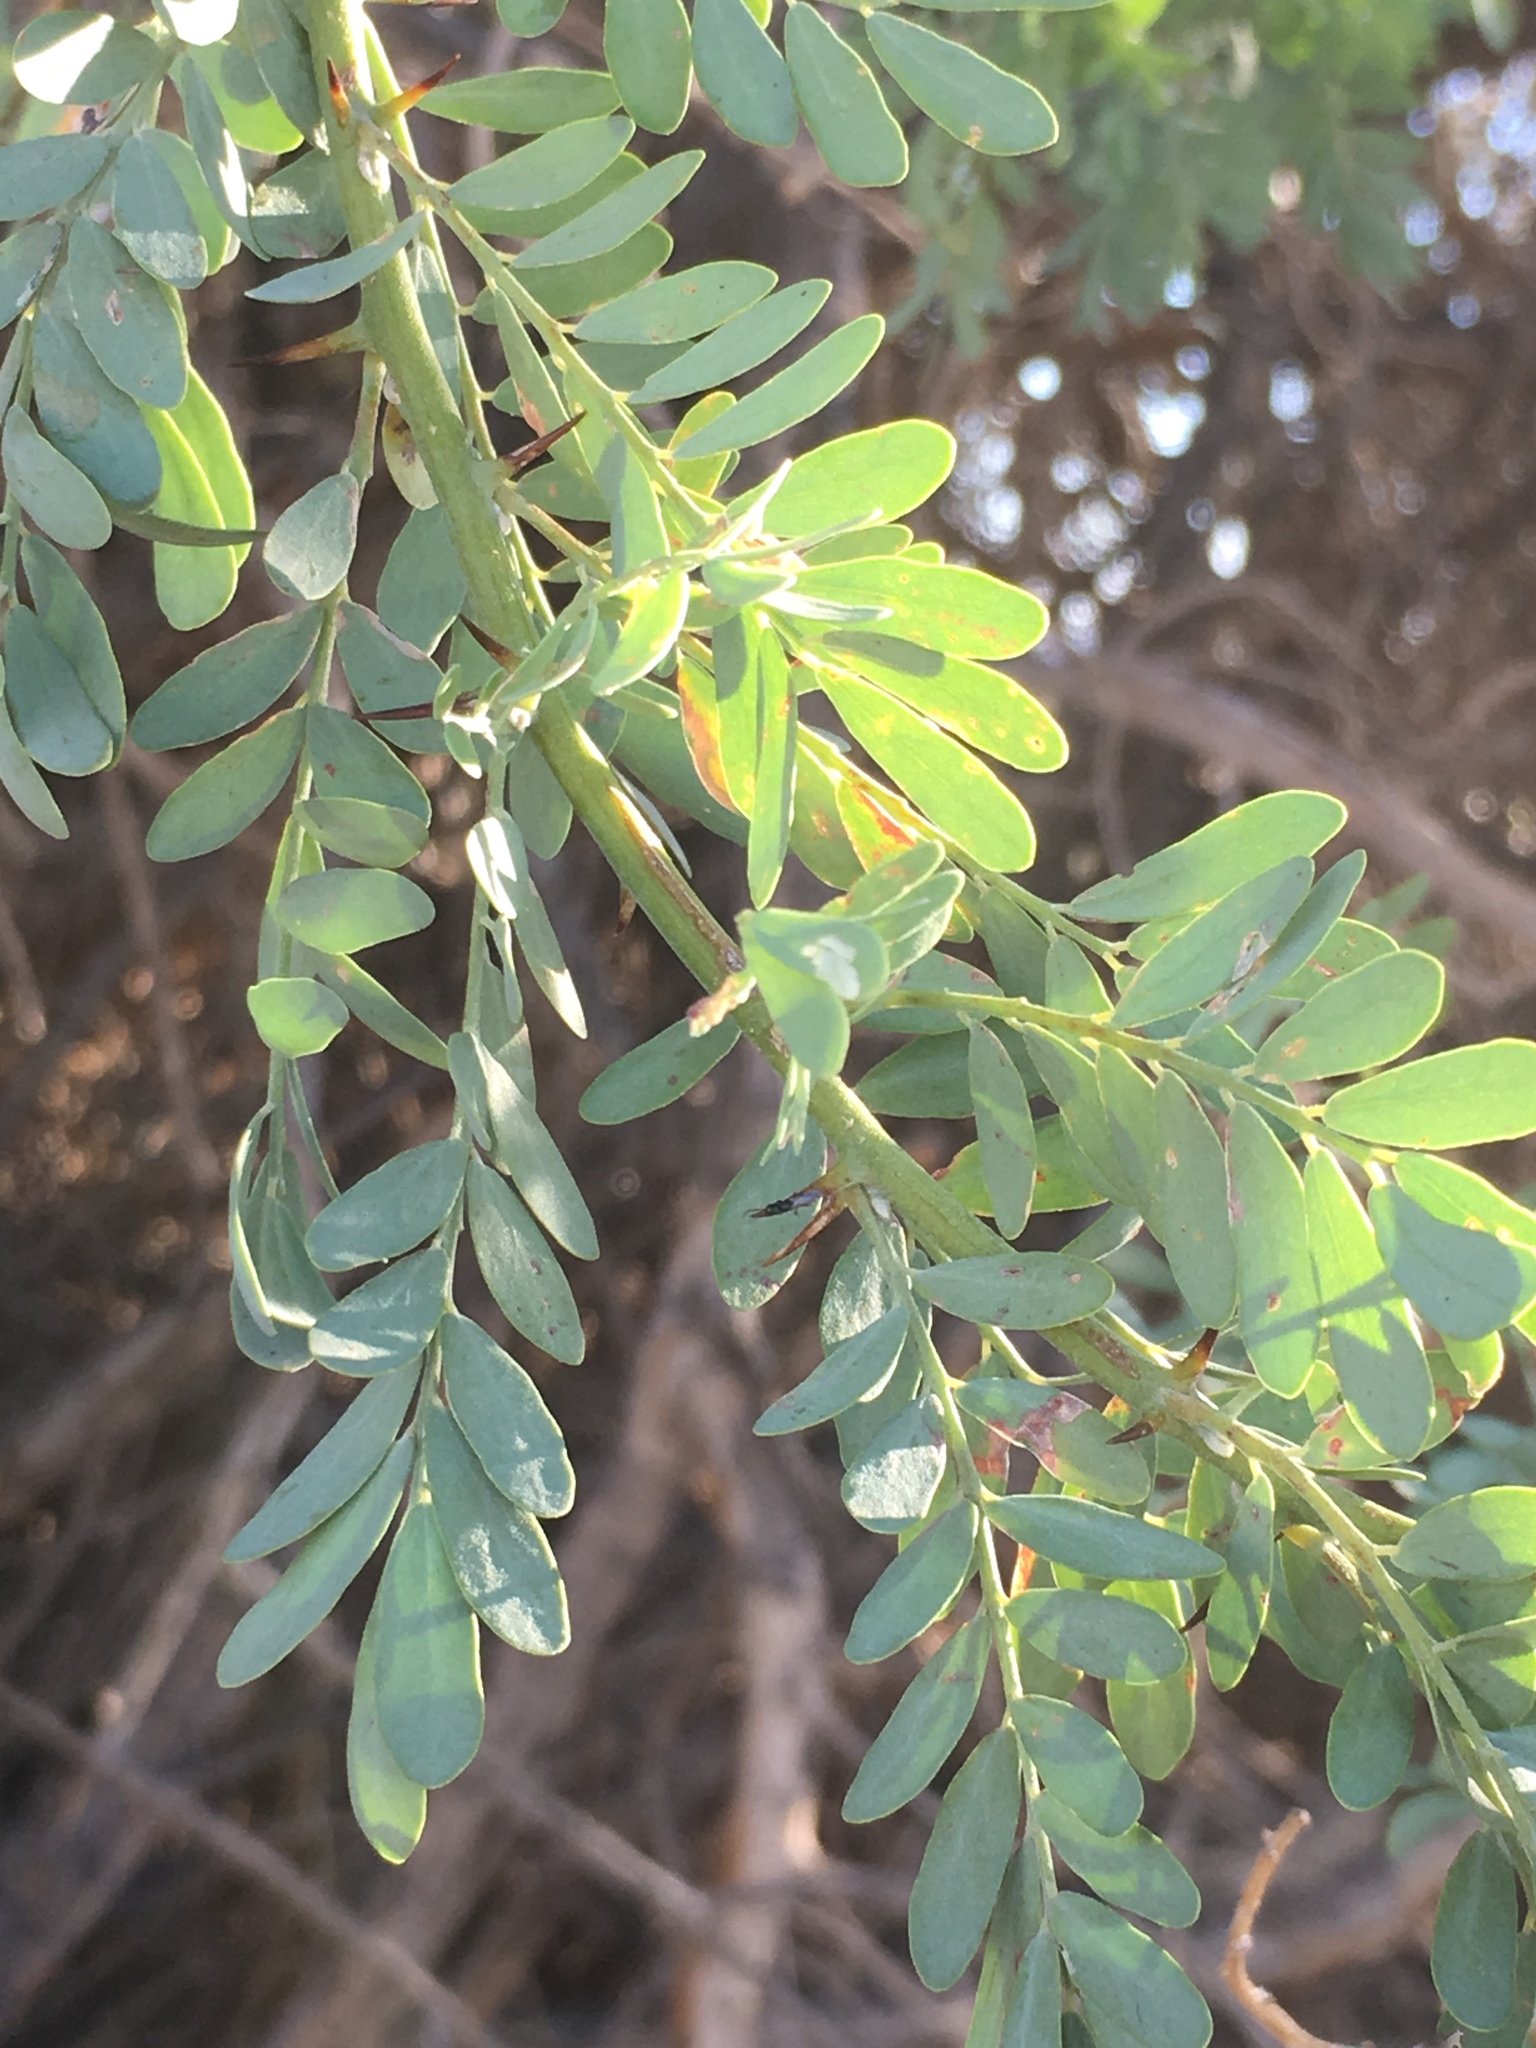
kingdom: Plantae
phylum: Tracheophyta
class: Magnoliopsida
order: Fabales
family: Fabaceae
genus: Olneya
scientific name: Olneya tesota
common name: Desert ironwood
